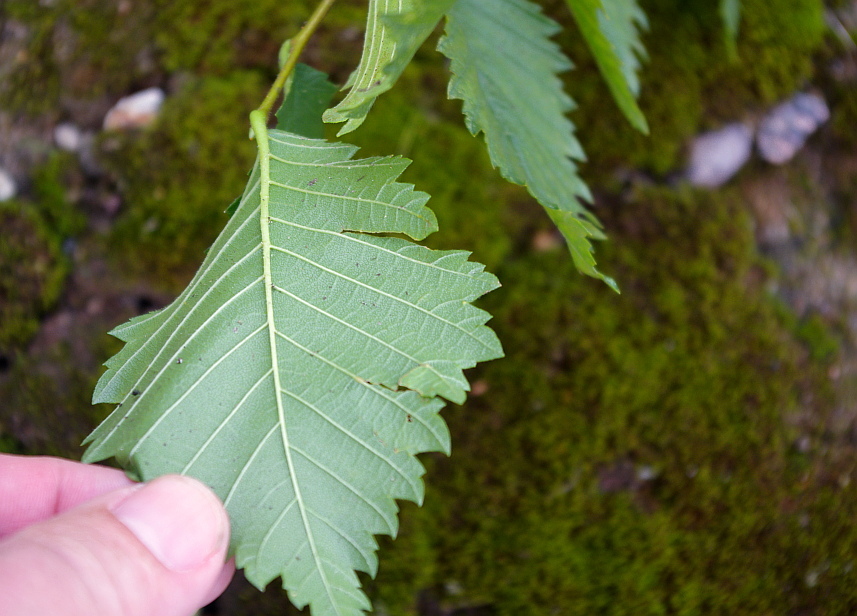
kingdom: Plantae
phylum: Tracheophyta
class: Magnoliopsida
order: Rosales
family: Ulmaceae
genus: Ulmus
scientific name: Ulmus glabra
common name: Wych elm
